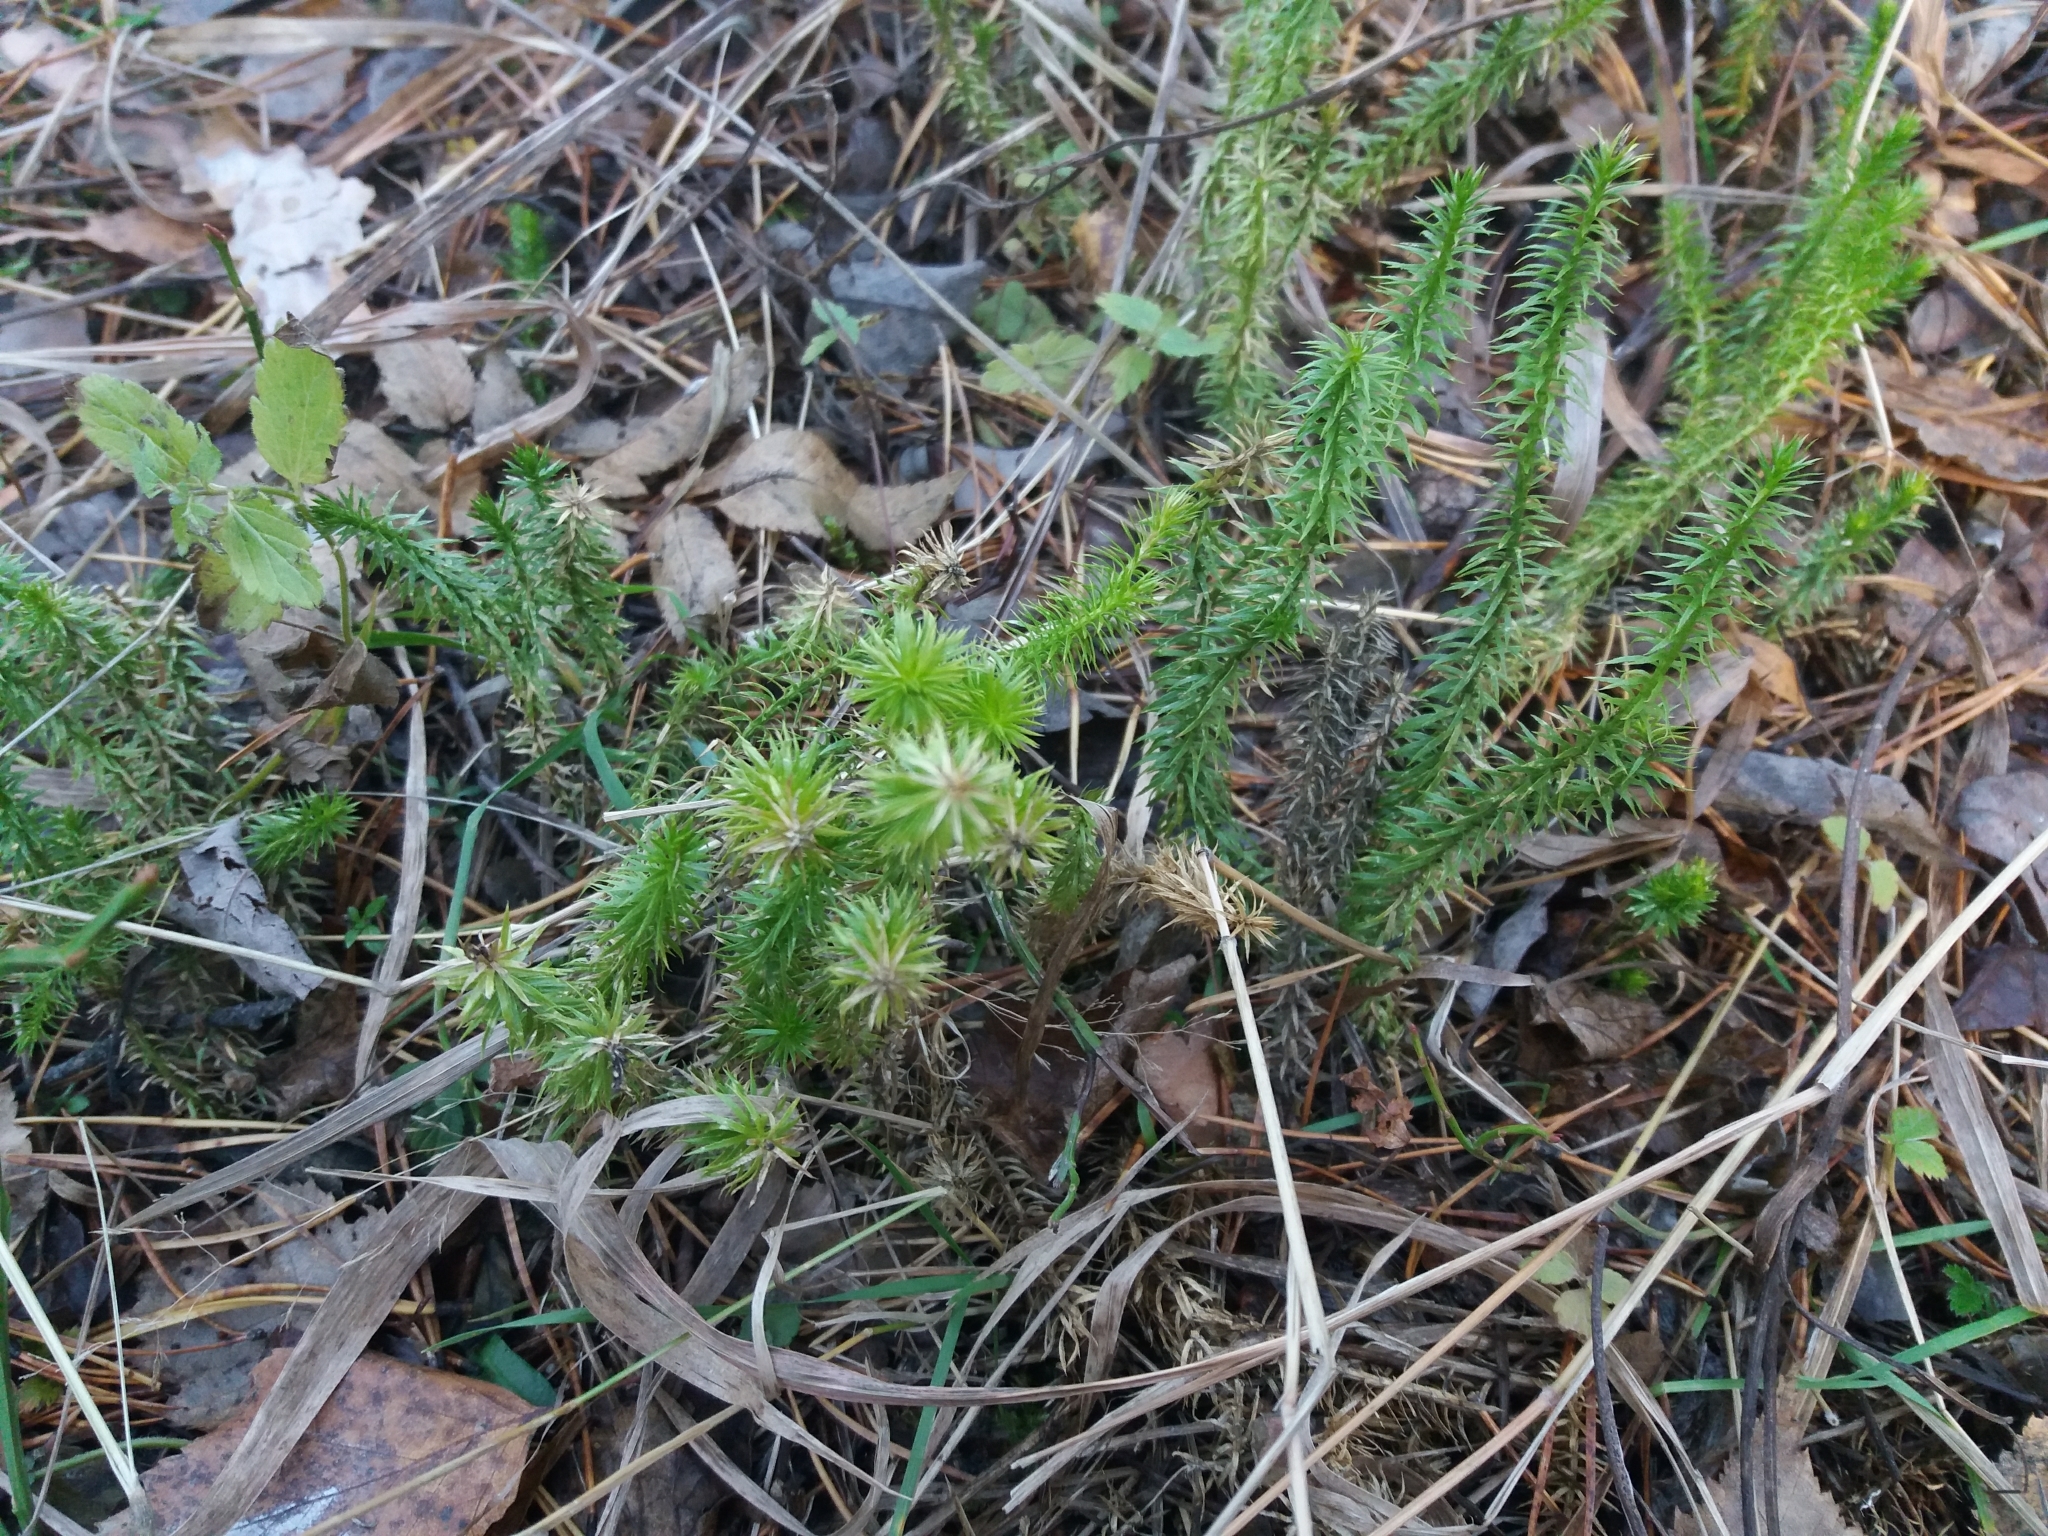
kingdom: Plantae
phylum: Tracheophyta
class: Lycopodiopsida
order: Lycopodiales
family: Lycopodiaceae
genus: Spinulum
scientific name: Spinulum annotinum
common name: Interrupted club-moss
